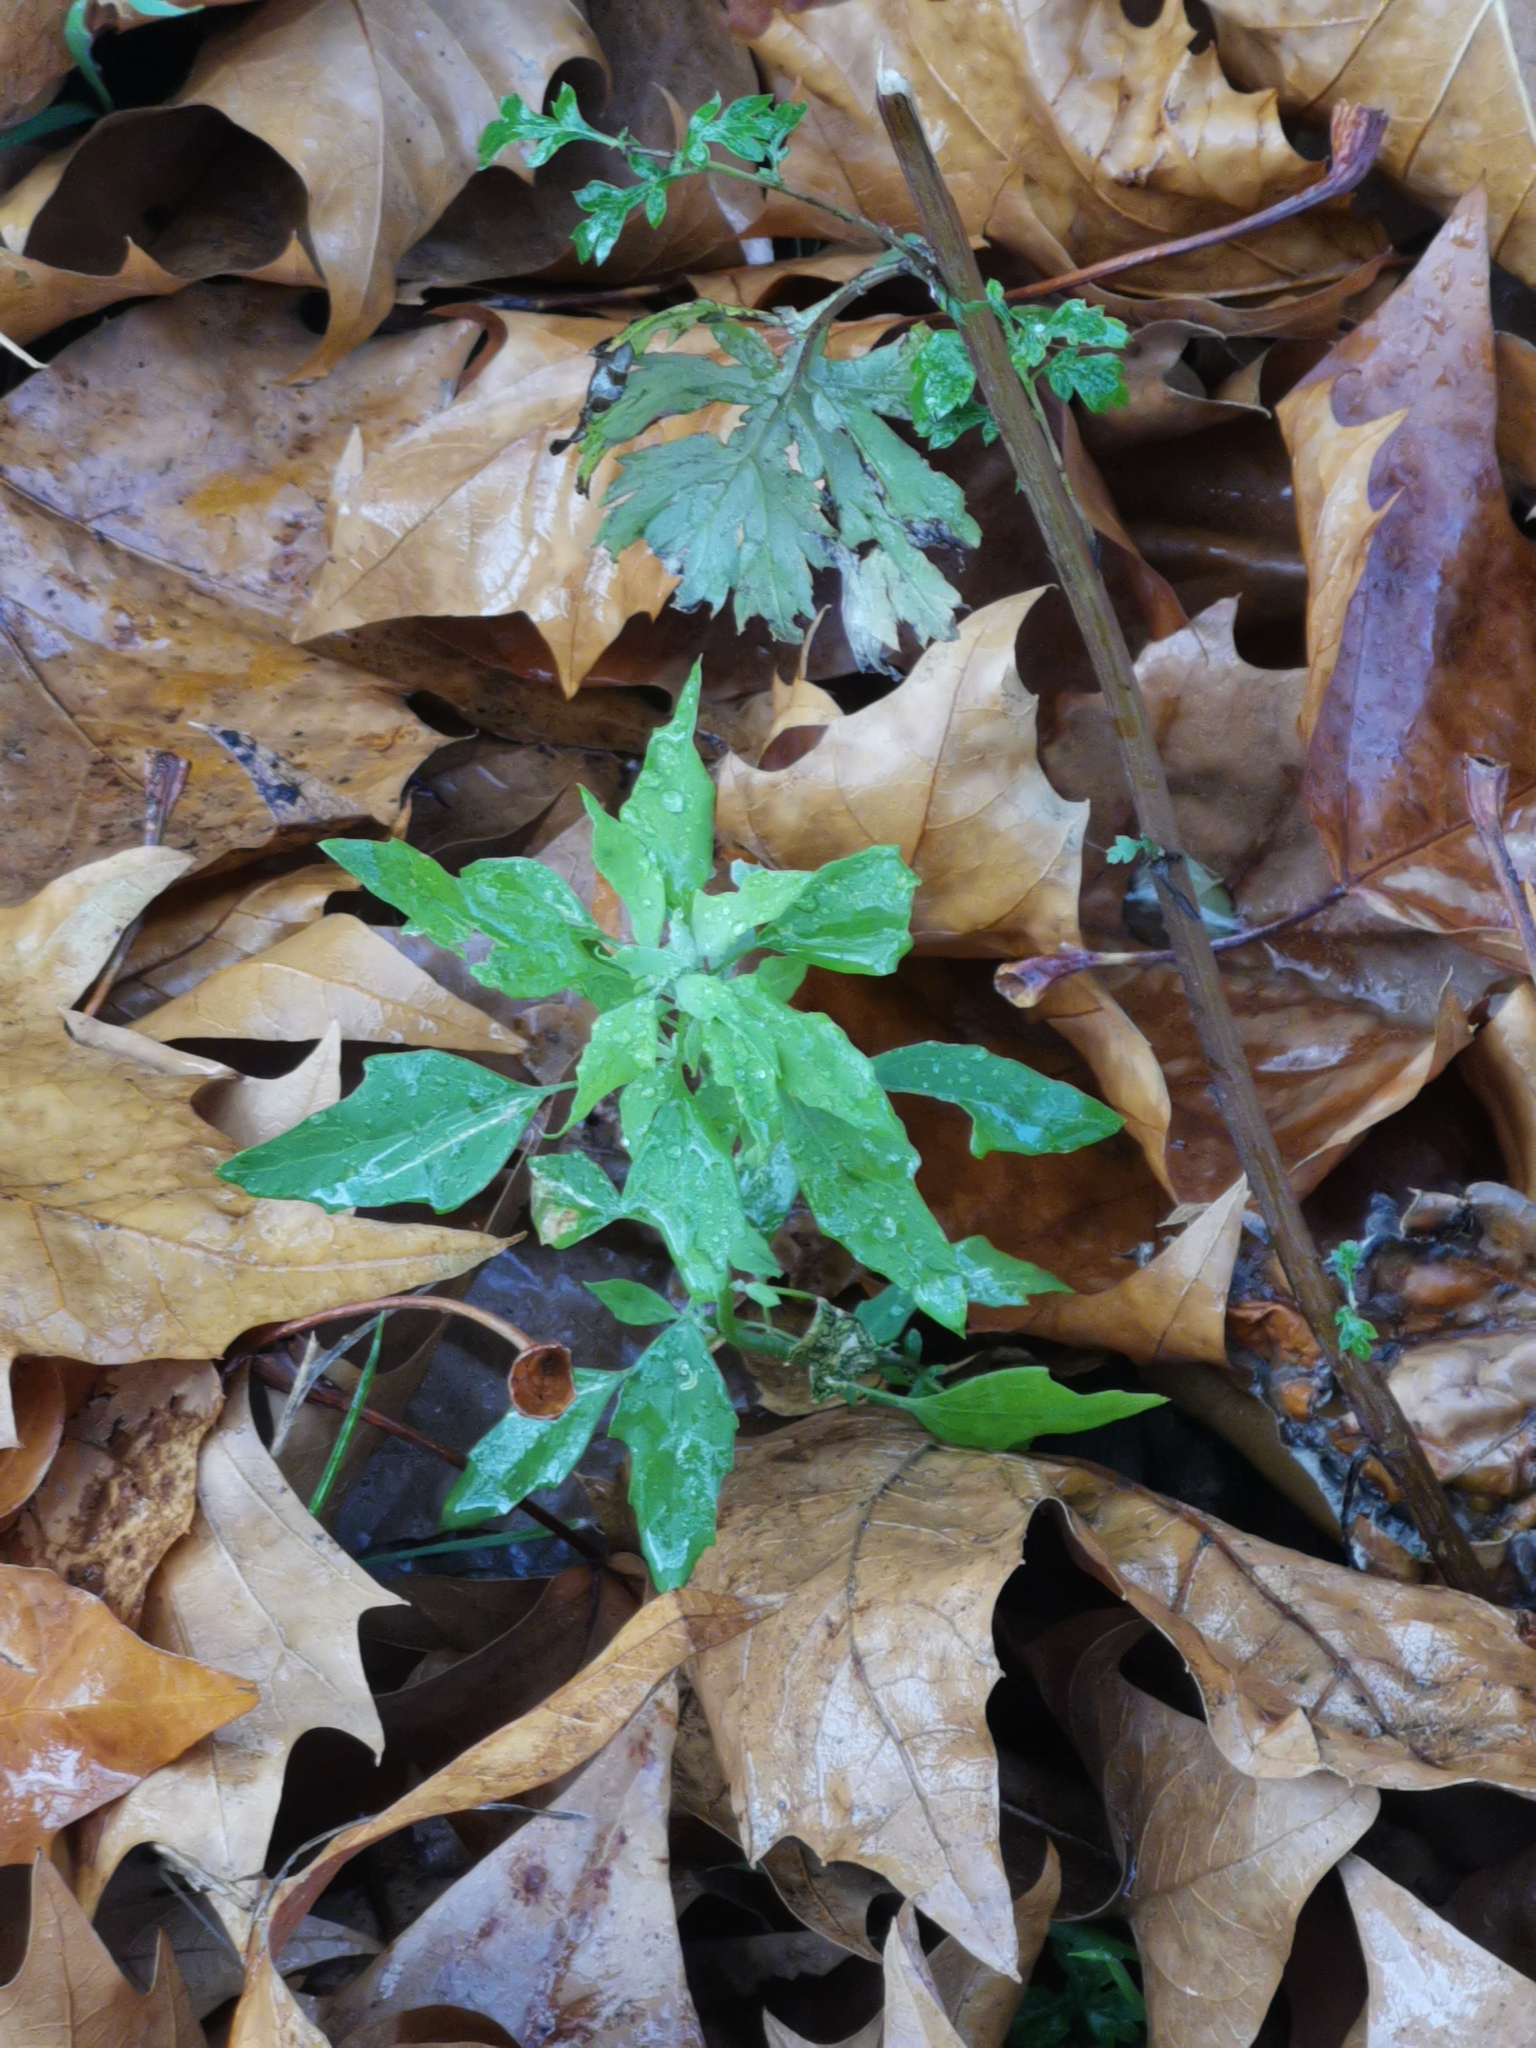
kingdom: Plantae
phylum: Tracheophyta
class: Magnoliopsida
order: Caryophyllales
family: Amaranthaceae
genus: Chenopodium
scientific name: Chenopodium album
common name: Fat-hen
